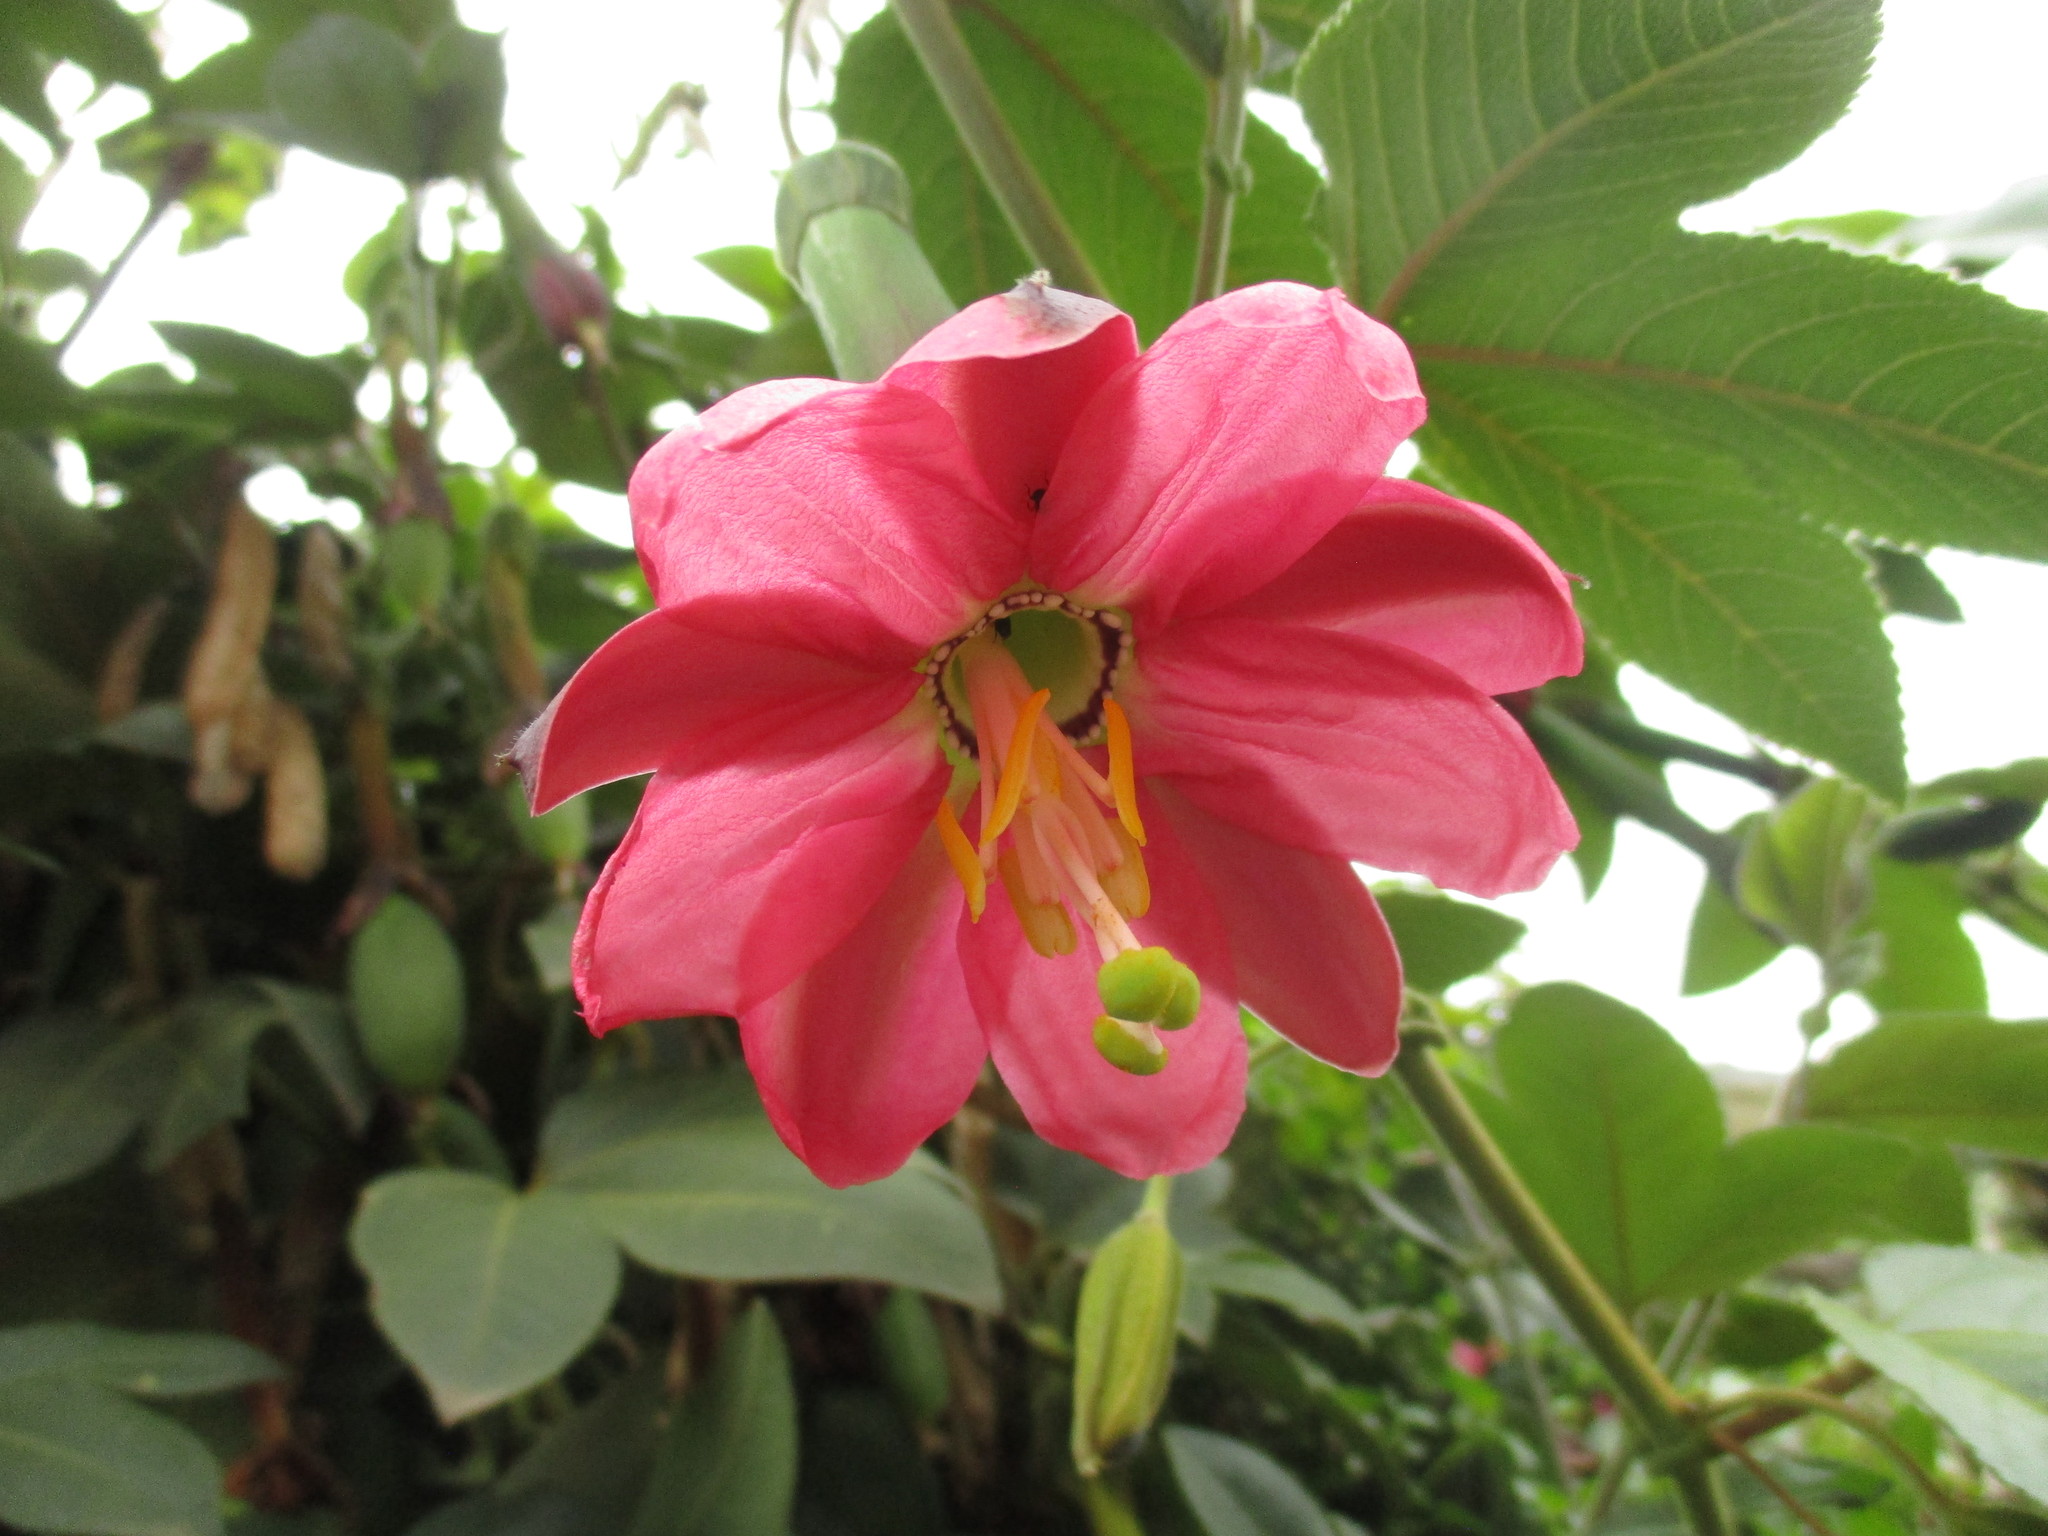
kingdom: Plantae
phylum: Tracheophyta
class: Magnoliopsida
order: Malpighiales
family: Passifloraceae
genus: Passiflora
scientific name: Passiflora tripartita
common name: Banana poka
